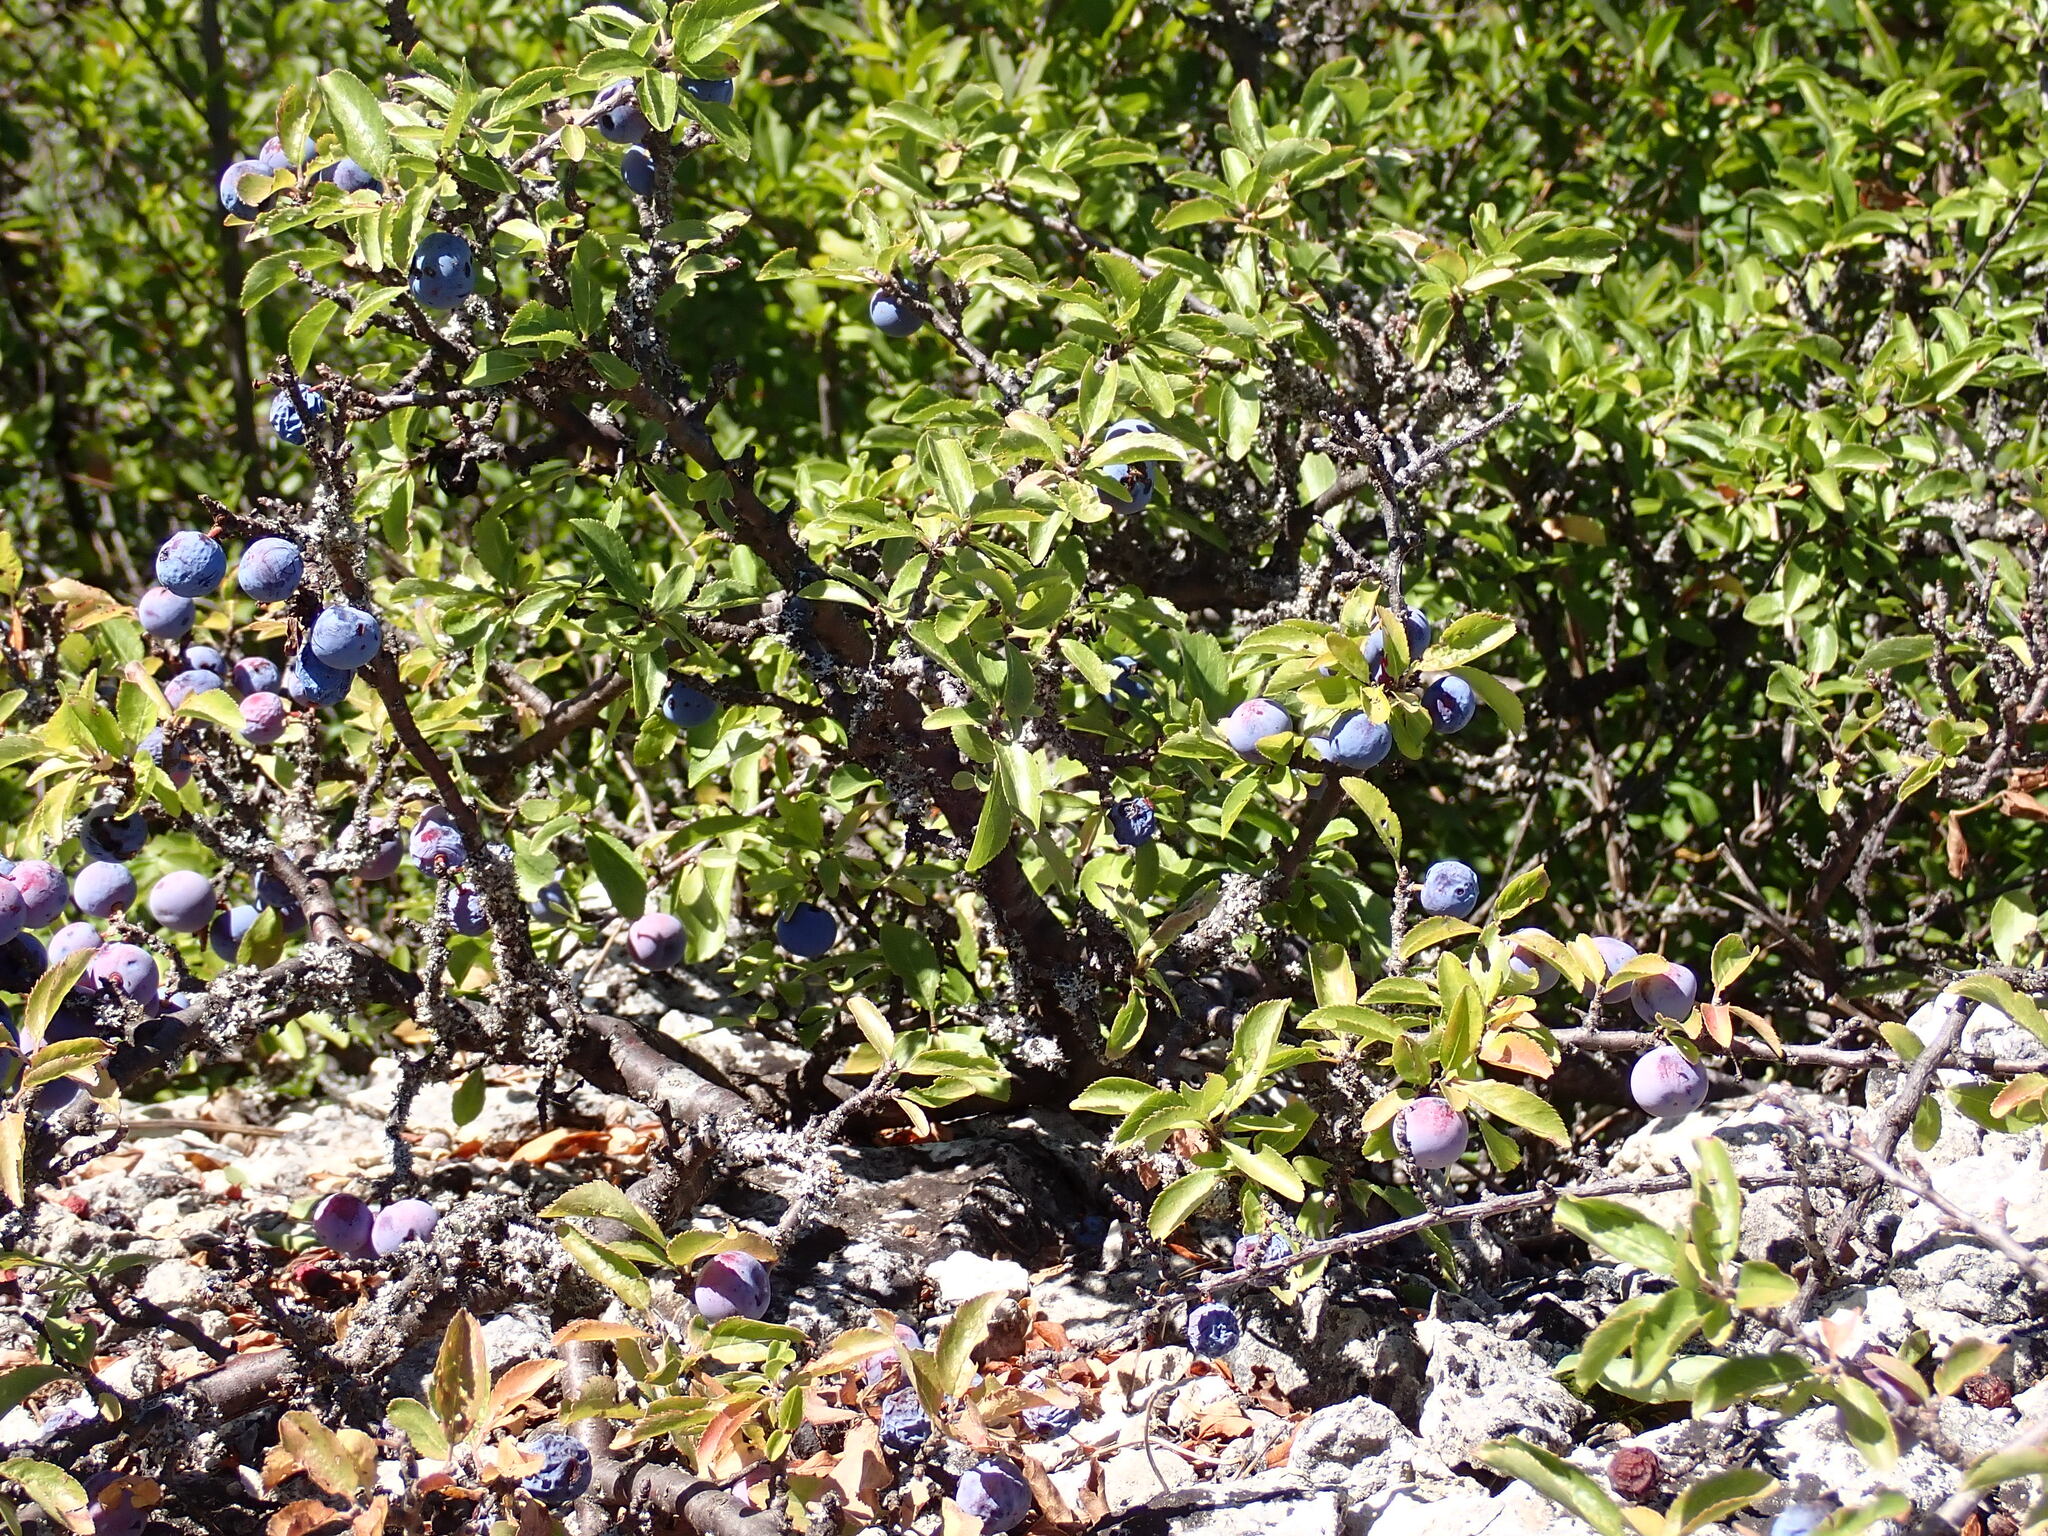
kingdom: Plantae
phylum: Tracheophyta
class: Magnoliopsida
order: Rosales
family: Rosaceae
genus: Prunus
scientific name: Prunus spinosa
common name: Blackthorn
